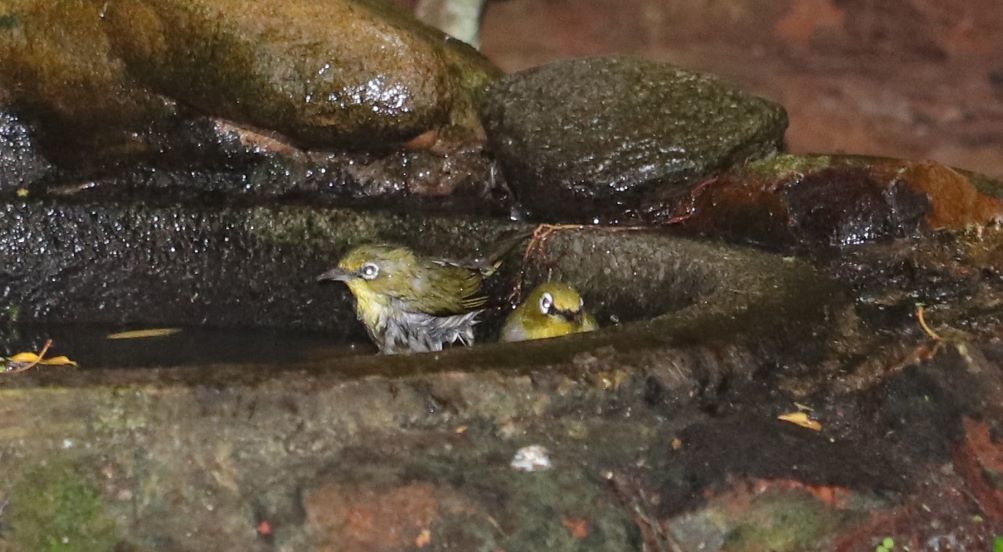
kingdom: Animalia
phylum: Chordata
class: Aves
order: Passeriformes
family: Zosteropidae
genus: Zosterops
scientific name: Zosterops virens
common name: Cape white-eye
